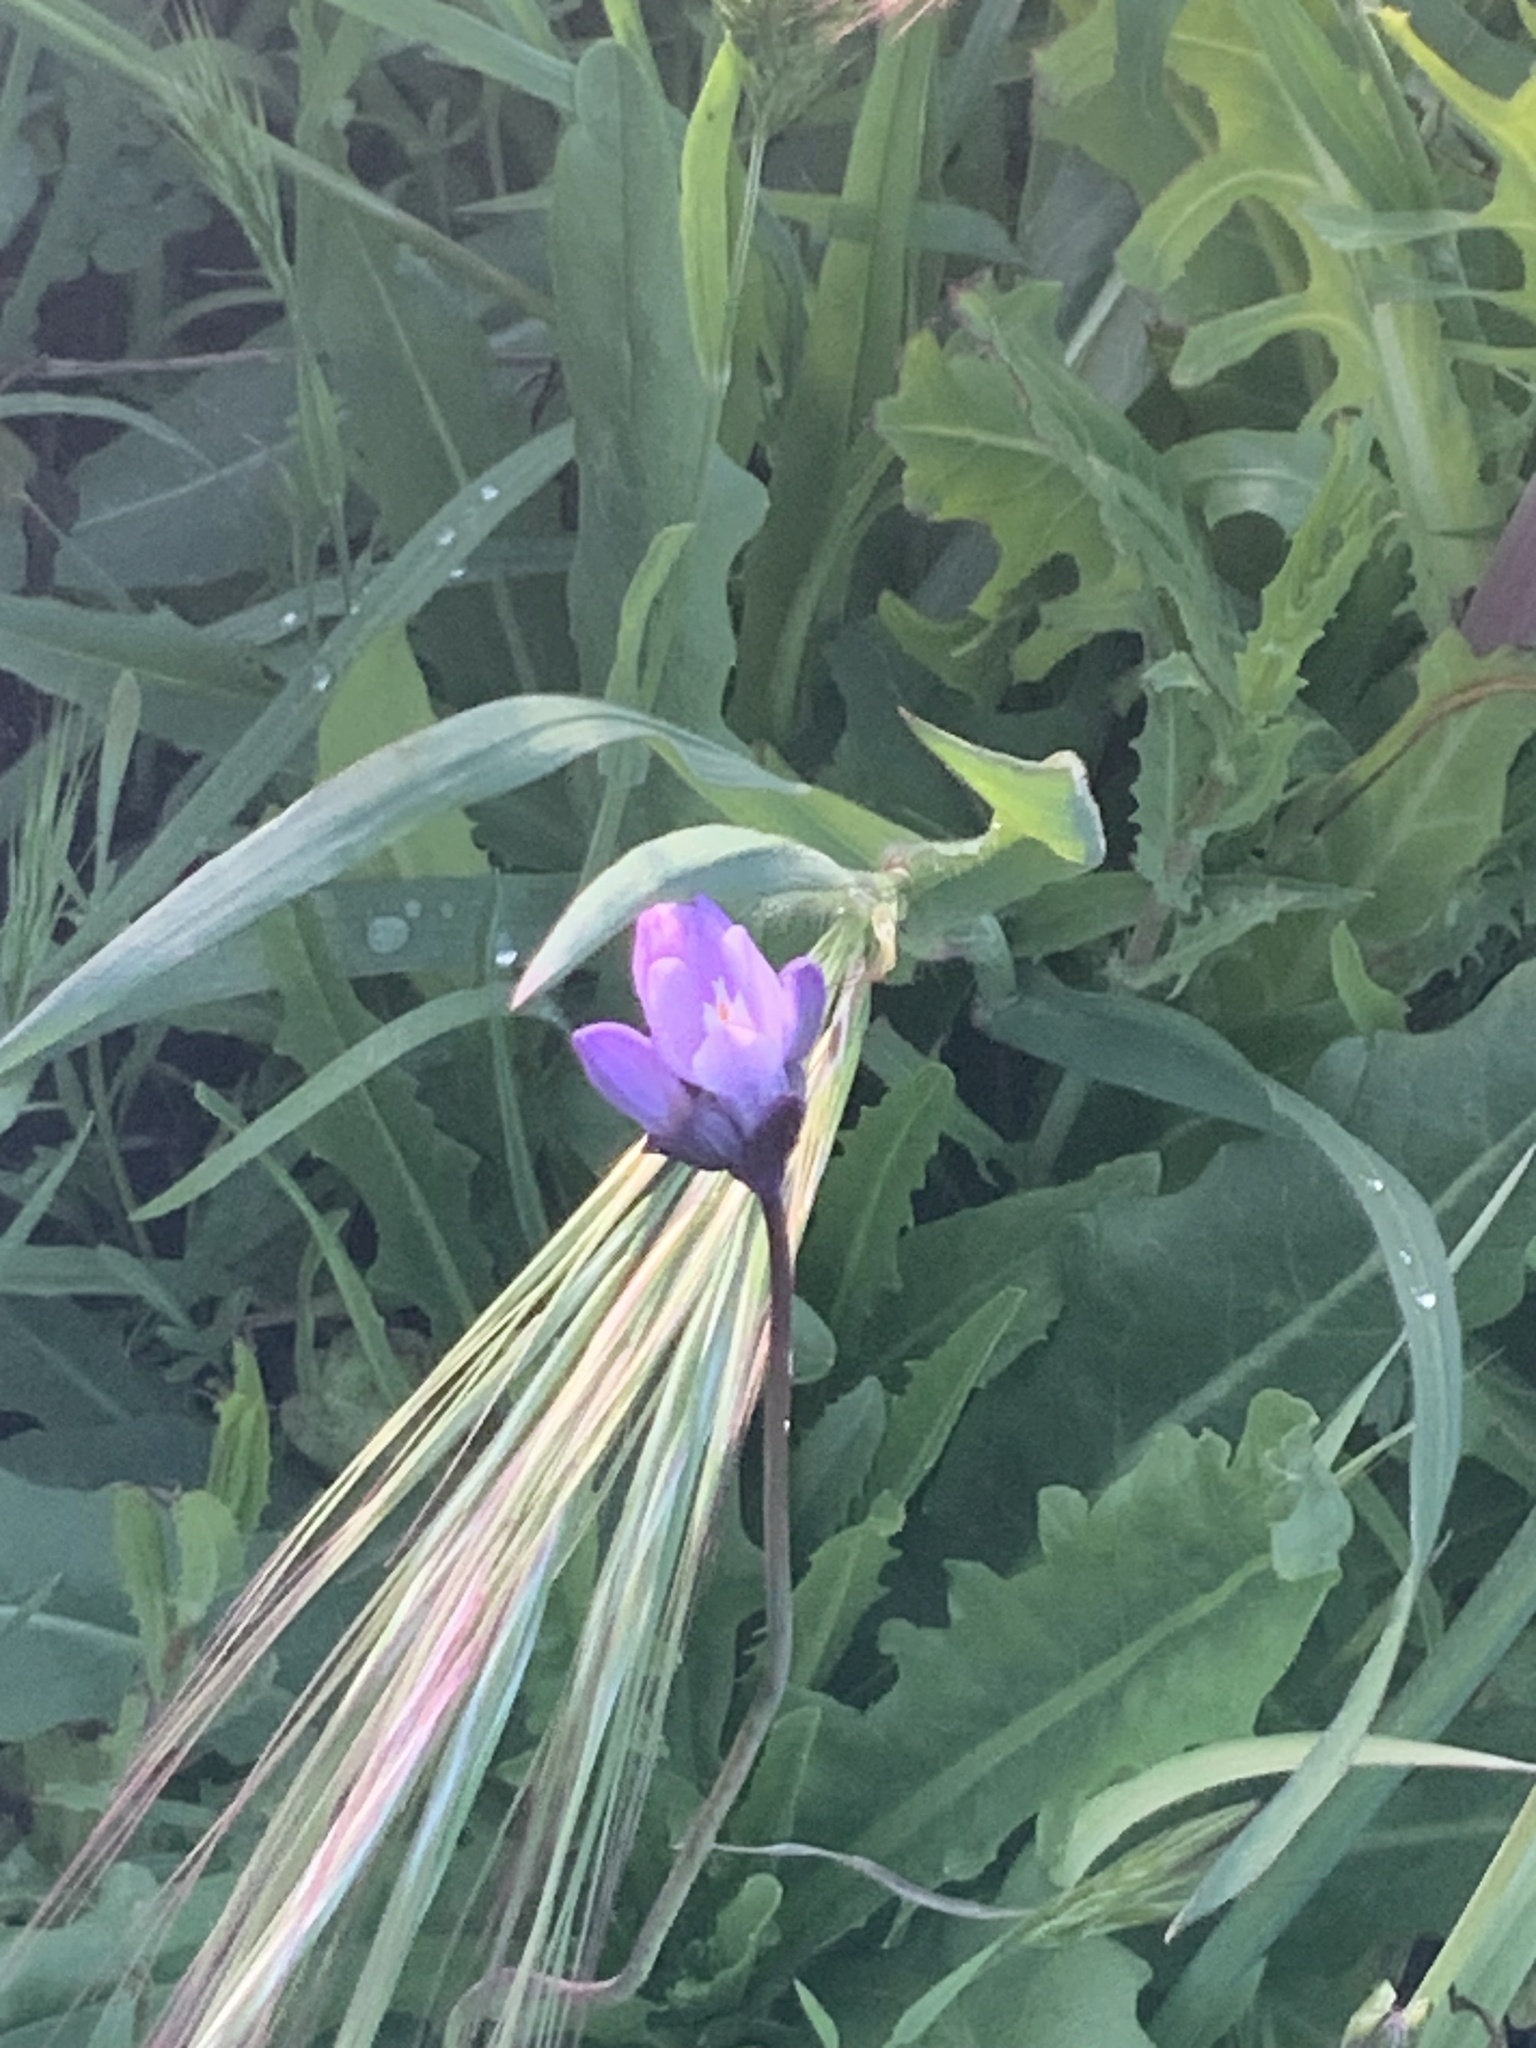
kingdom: Plantae
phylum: Tracheophyta
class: Liliopsida
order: Asparagales
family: Asparagaceae
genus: Dipterostemon
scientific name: Dipterostemon capitatus
